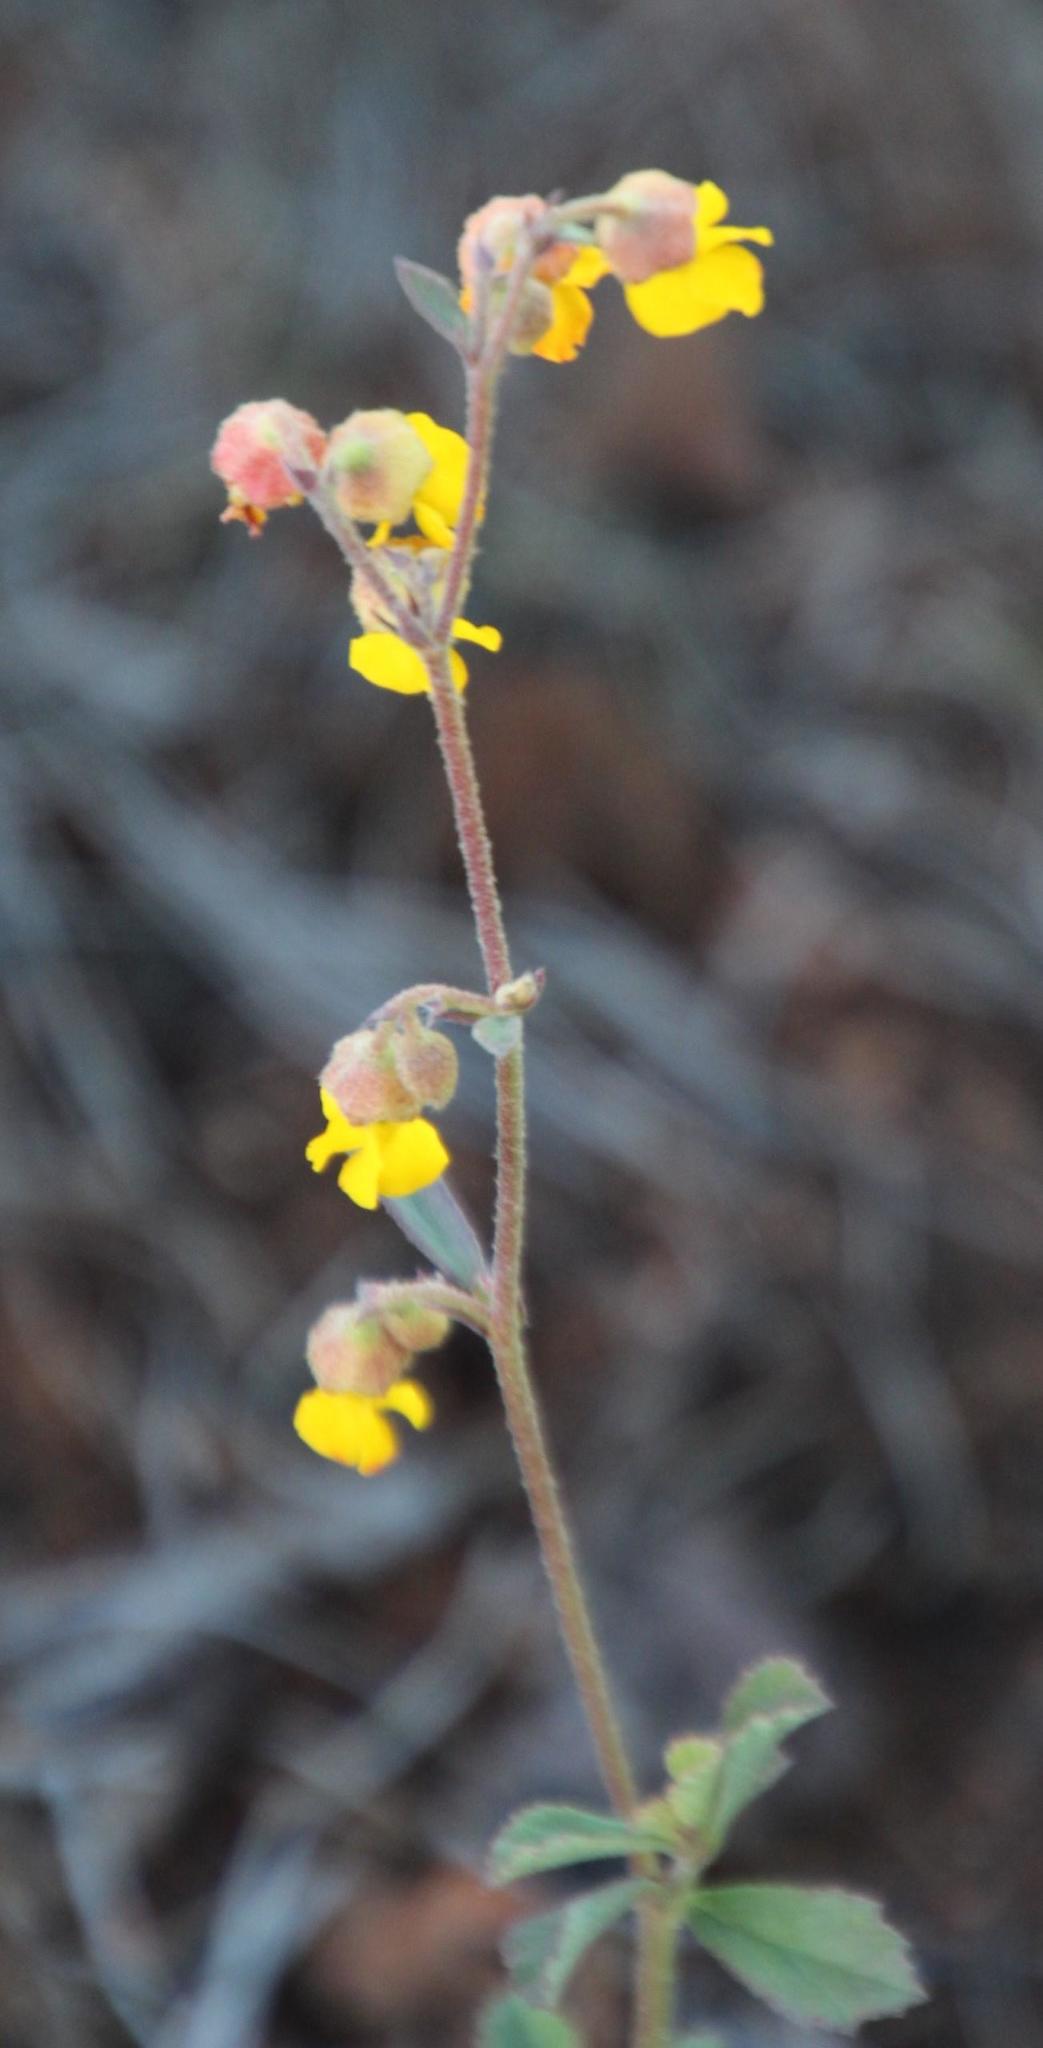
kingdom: Plantae
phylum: Tracheophyta
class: Magnoliopsida
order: Malvales
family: Malvaceae
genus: Hermannia
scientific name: Hermannia multiflora
